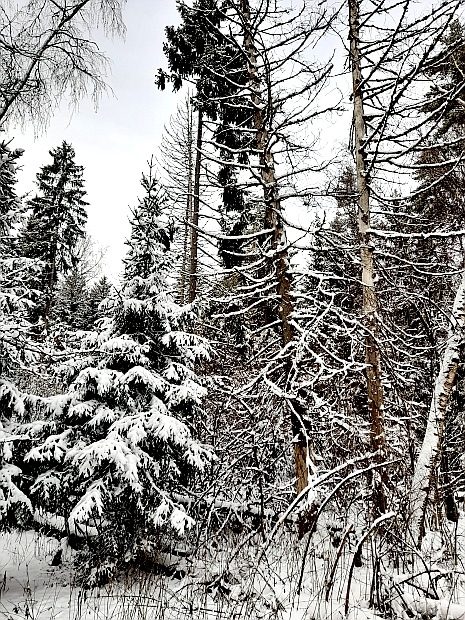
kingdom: Plantae
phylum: Tracheophyta
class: Pinopsida
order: Pinales
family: Pinaceae
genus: Picea
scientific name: Picea abies
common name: Norway spruce
